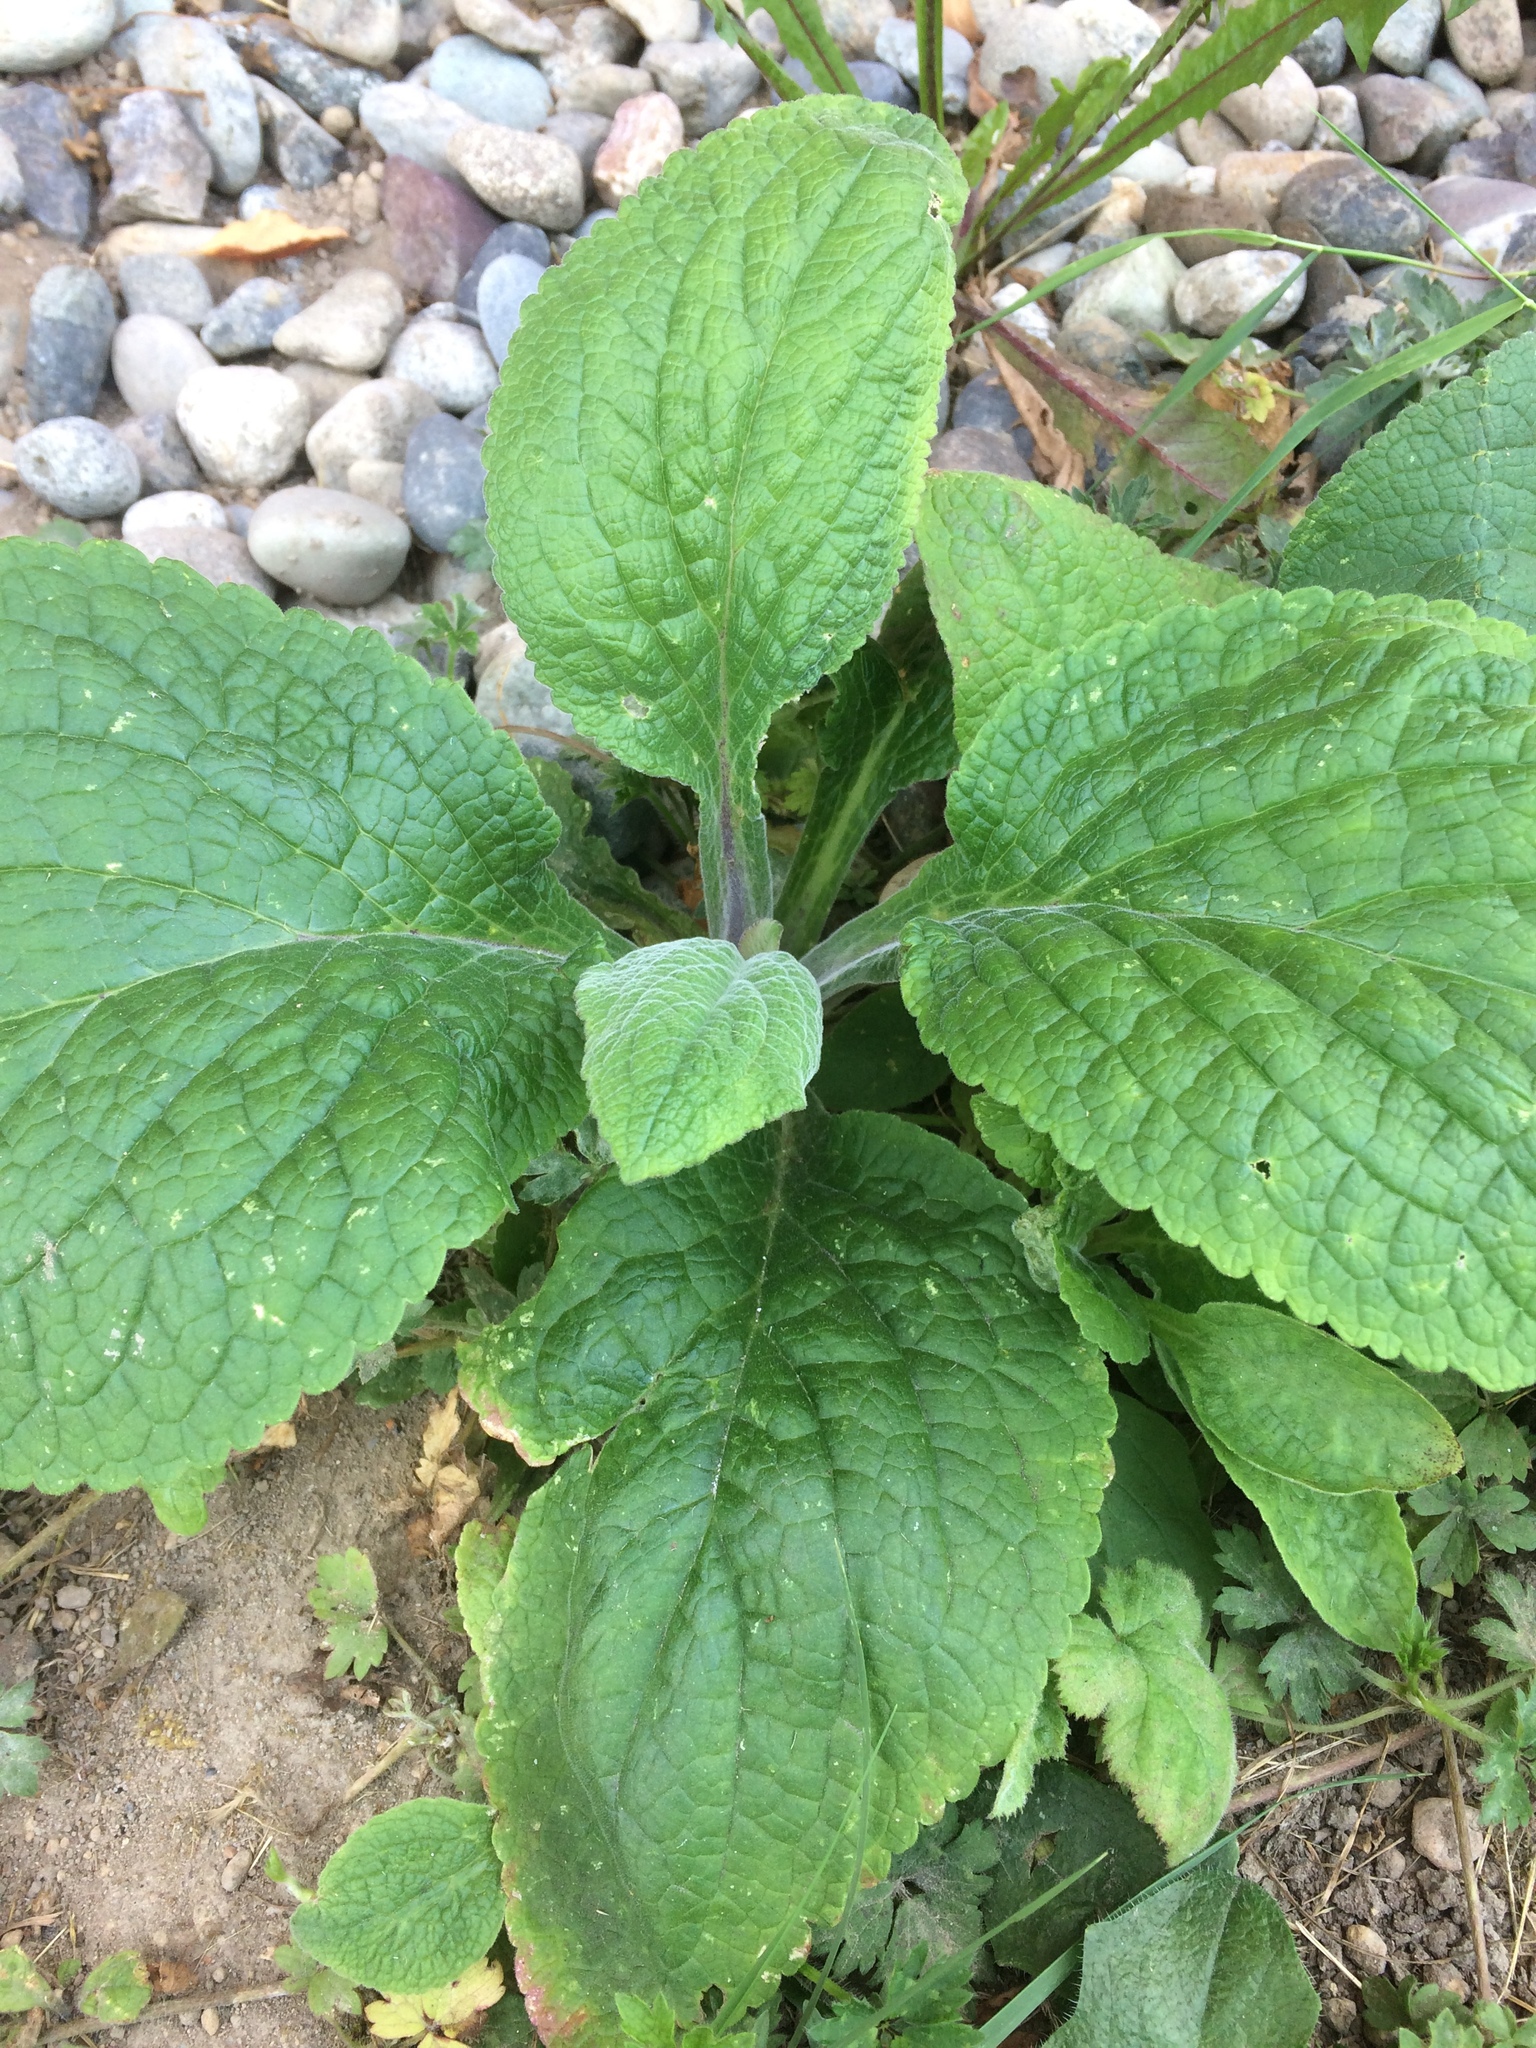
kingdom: Plantae
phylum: Tracheophyta
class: Magnoliopsida
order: Lamiales
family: Plantaginaceae
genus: Digitalis
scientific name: Digitalis purpurea
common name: Foxglove
